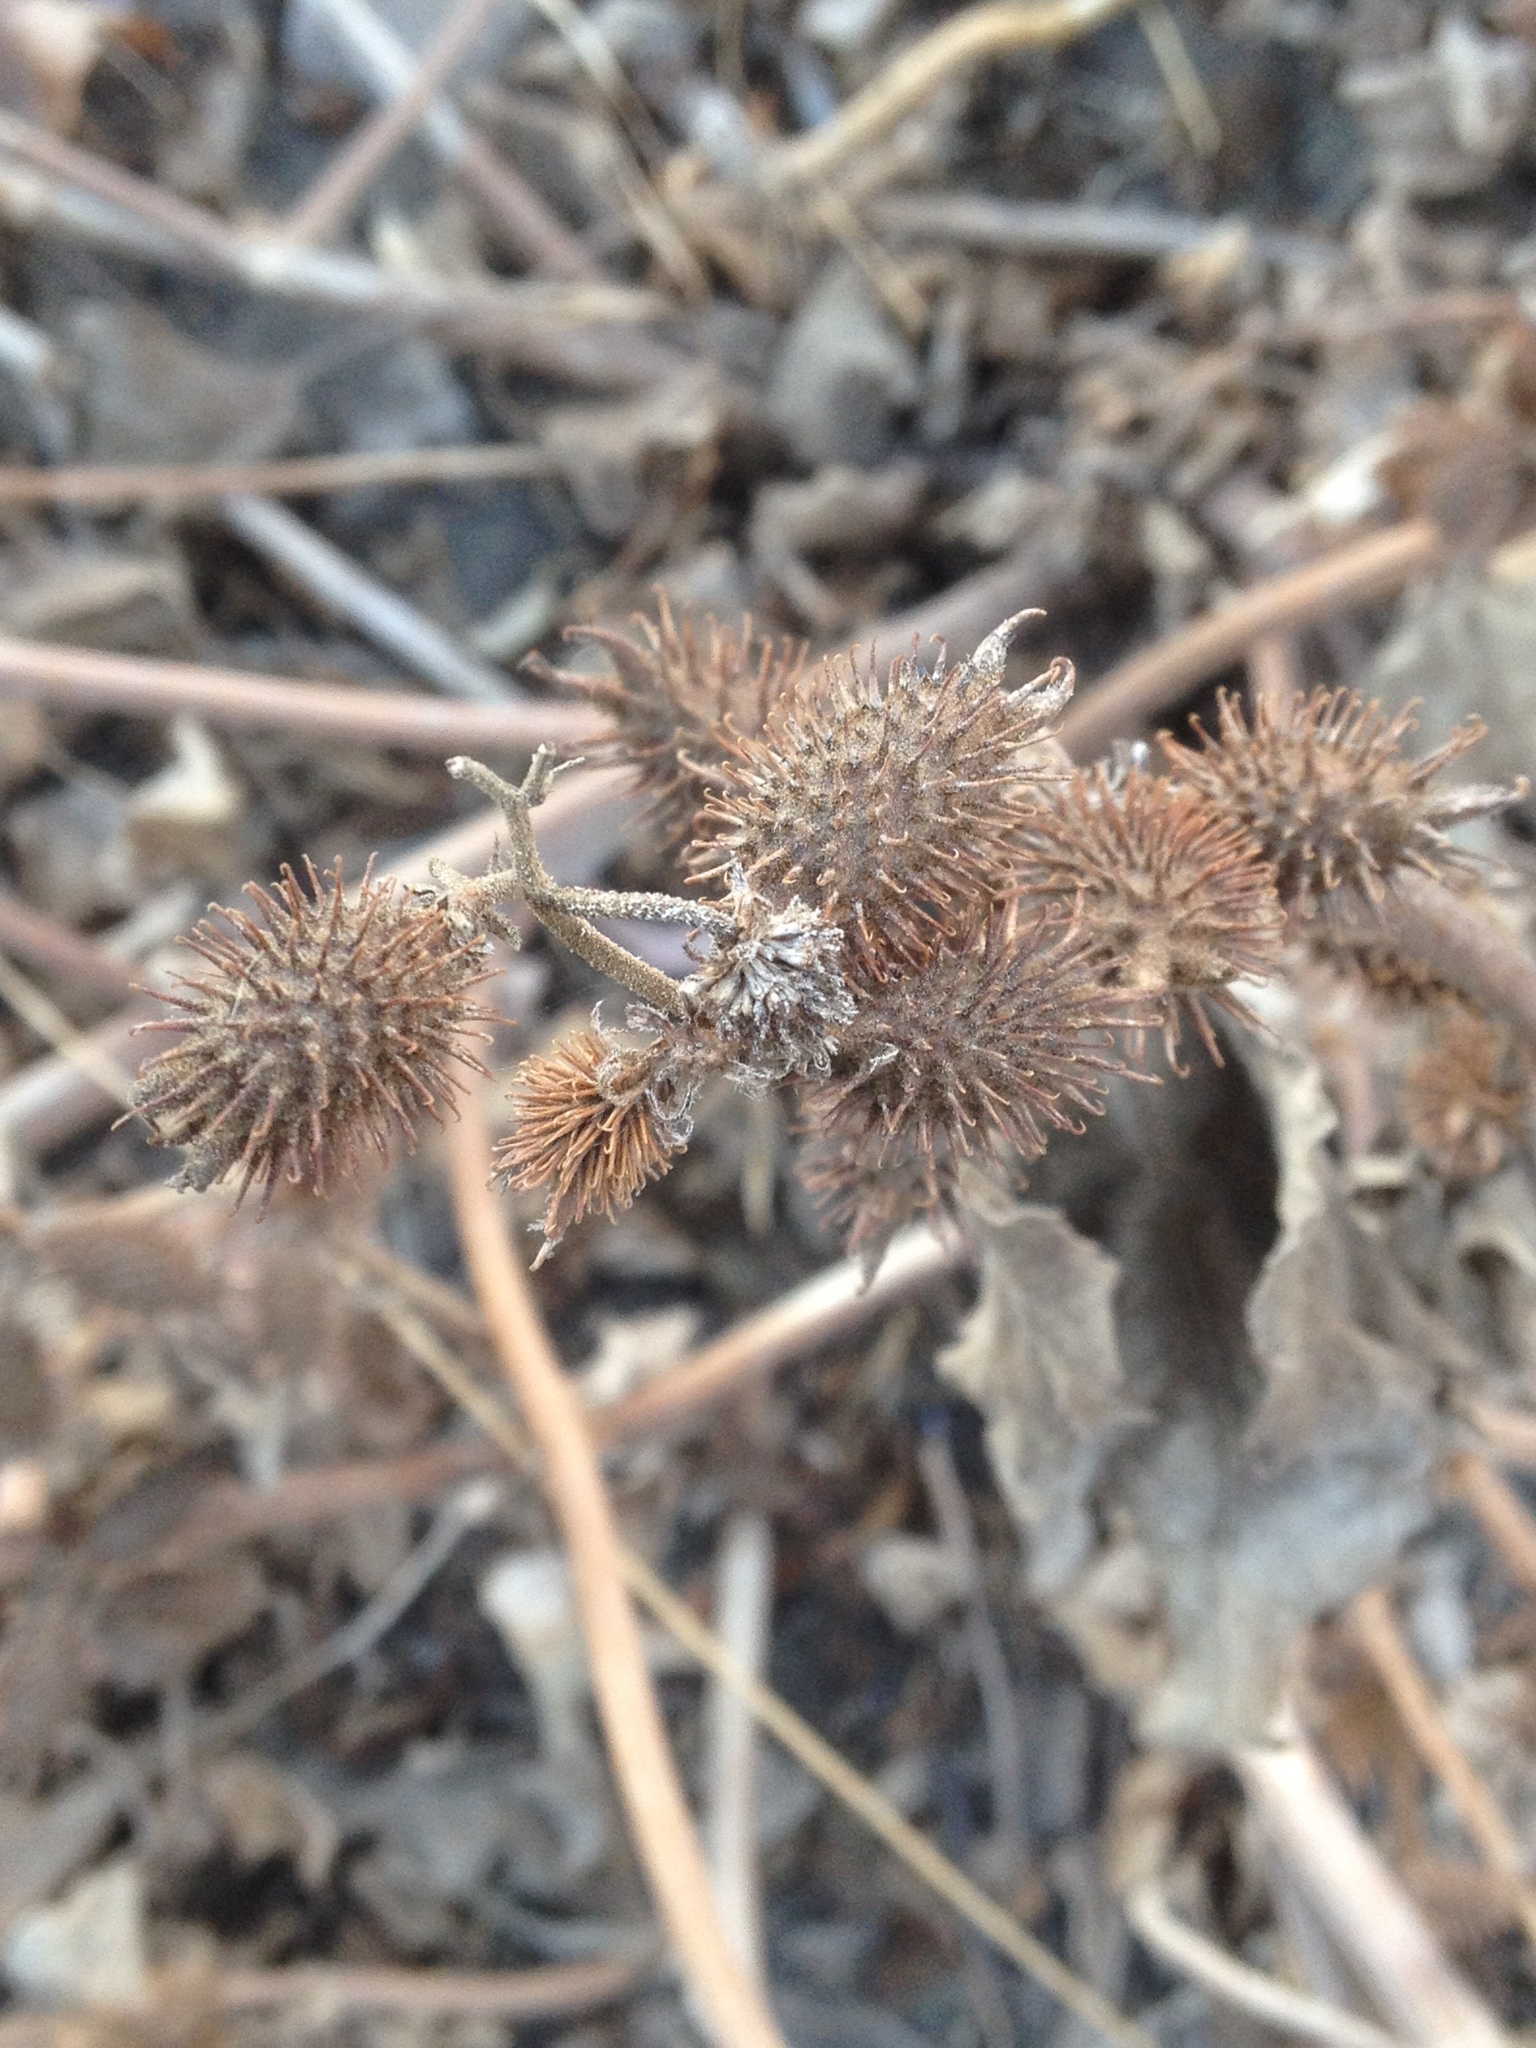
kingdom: Plantae
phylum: Tracheophyta
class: Magnoliopsida
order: Asterales
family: Asteraceae
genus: Xanthium
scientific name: Xanthium strumarium
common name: Rough cocklebur
